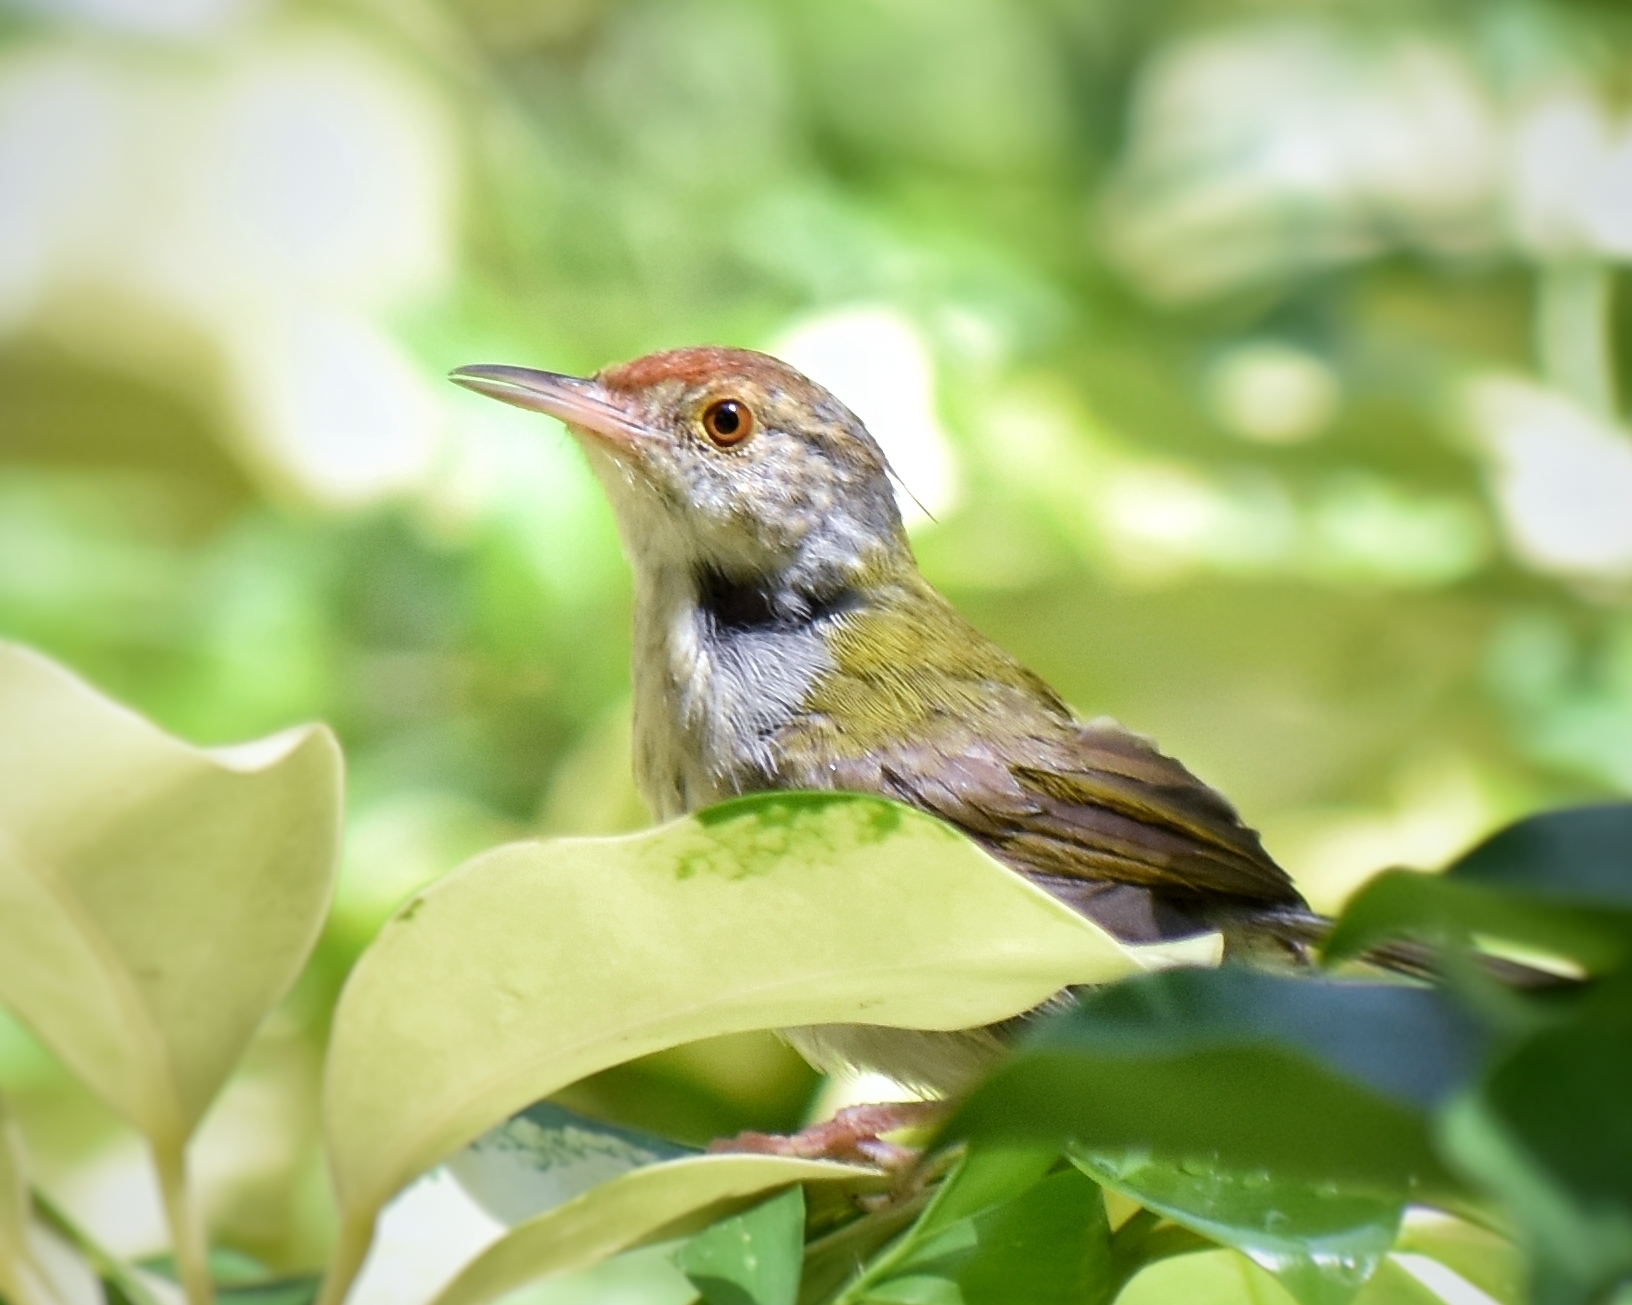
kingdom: Animalia
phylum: Chordata
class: Aves
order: Passeriformes
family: Cisticolidae
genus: Orthotomus
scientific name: Orthotomus sutorius
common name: Common tailorbird
